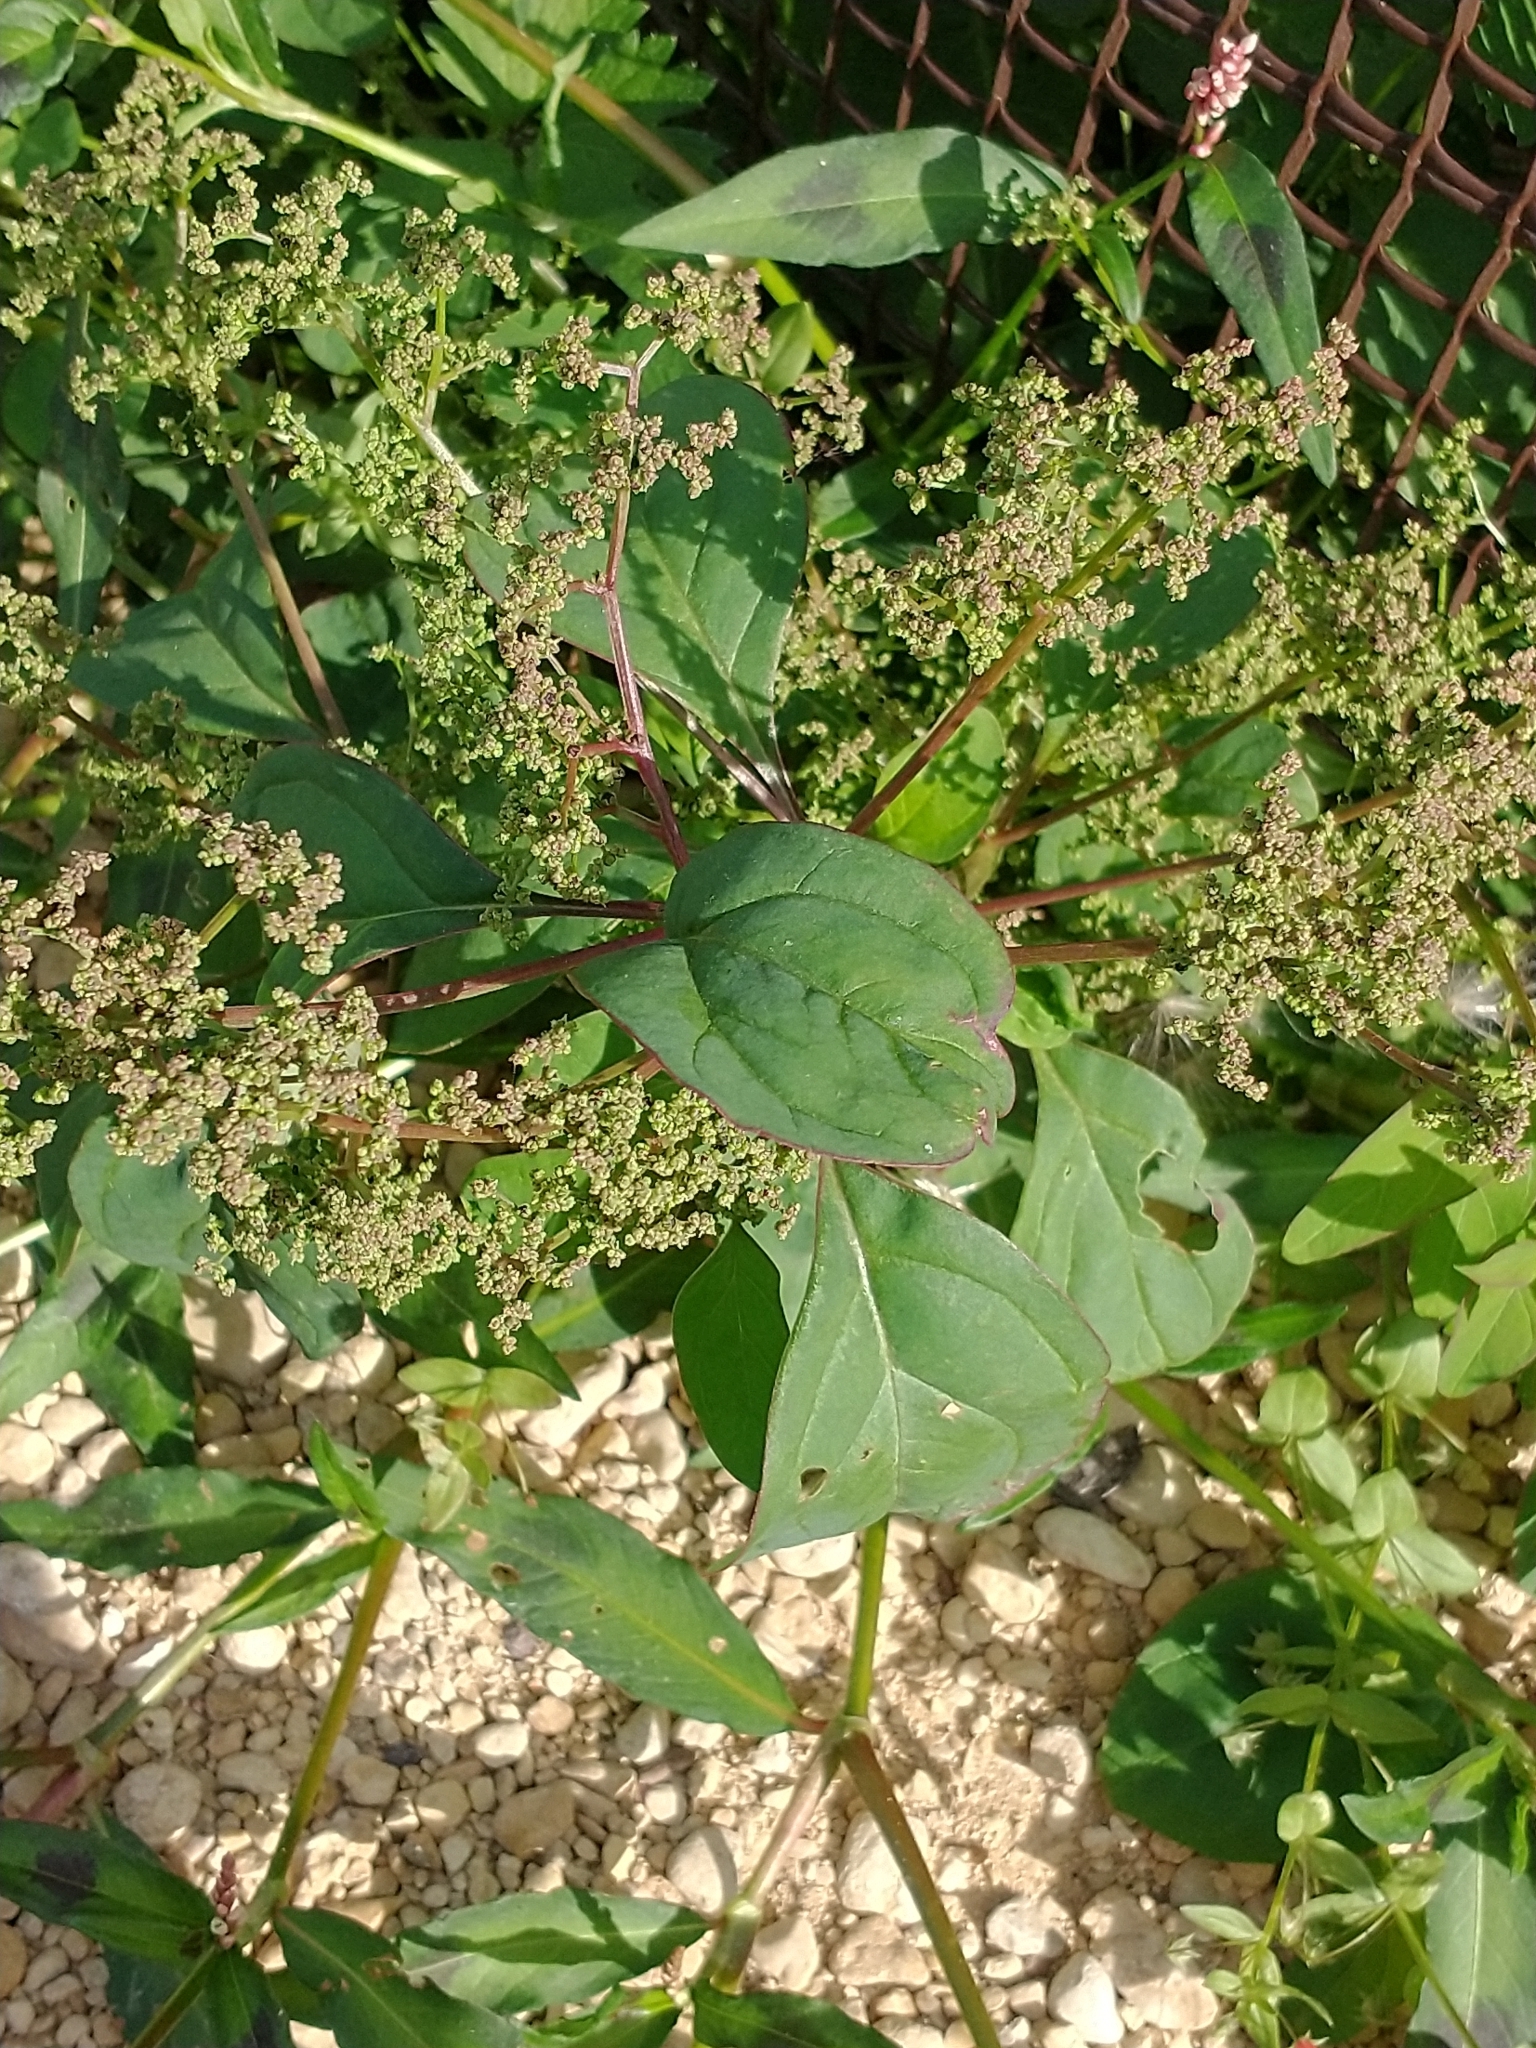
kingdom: Plantae
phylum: Tracheophyta
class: Magnoliopsida
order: Caryophyllales
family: Amaranthaceae
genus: Lipandra
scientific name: Lipandra polysperma
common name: Many-seed goosefoot
